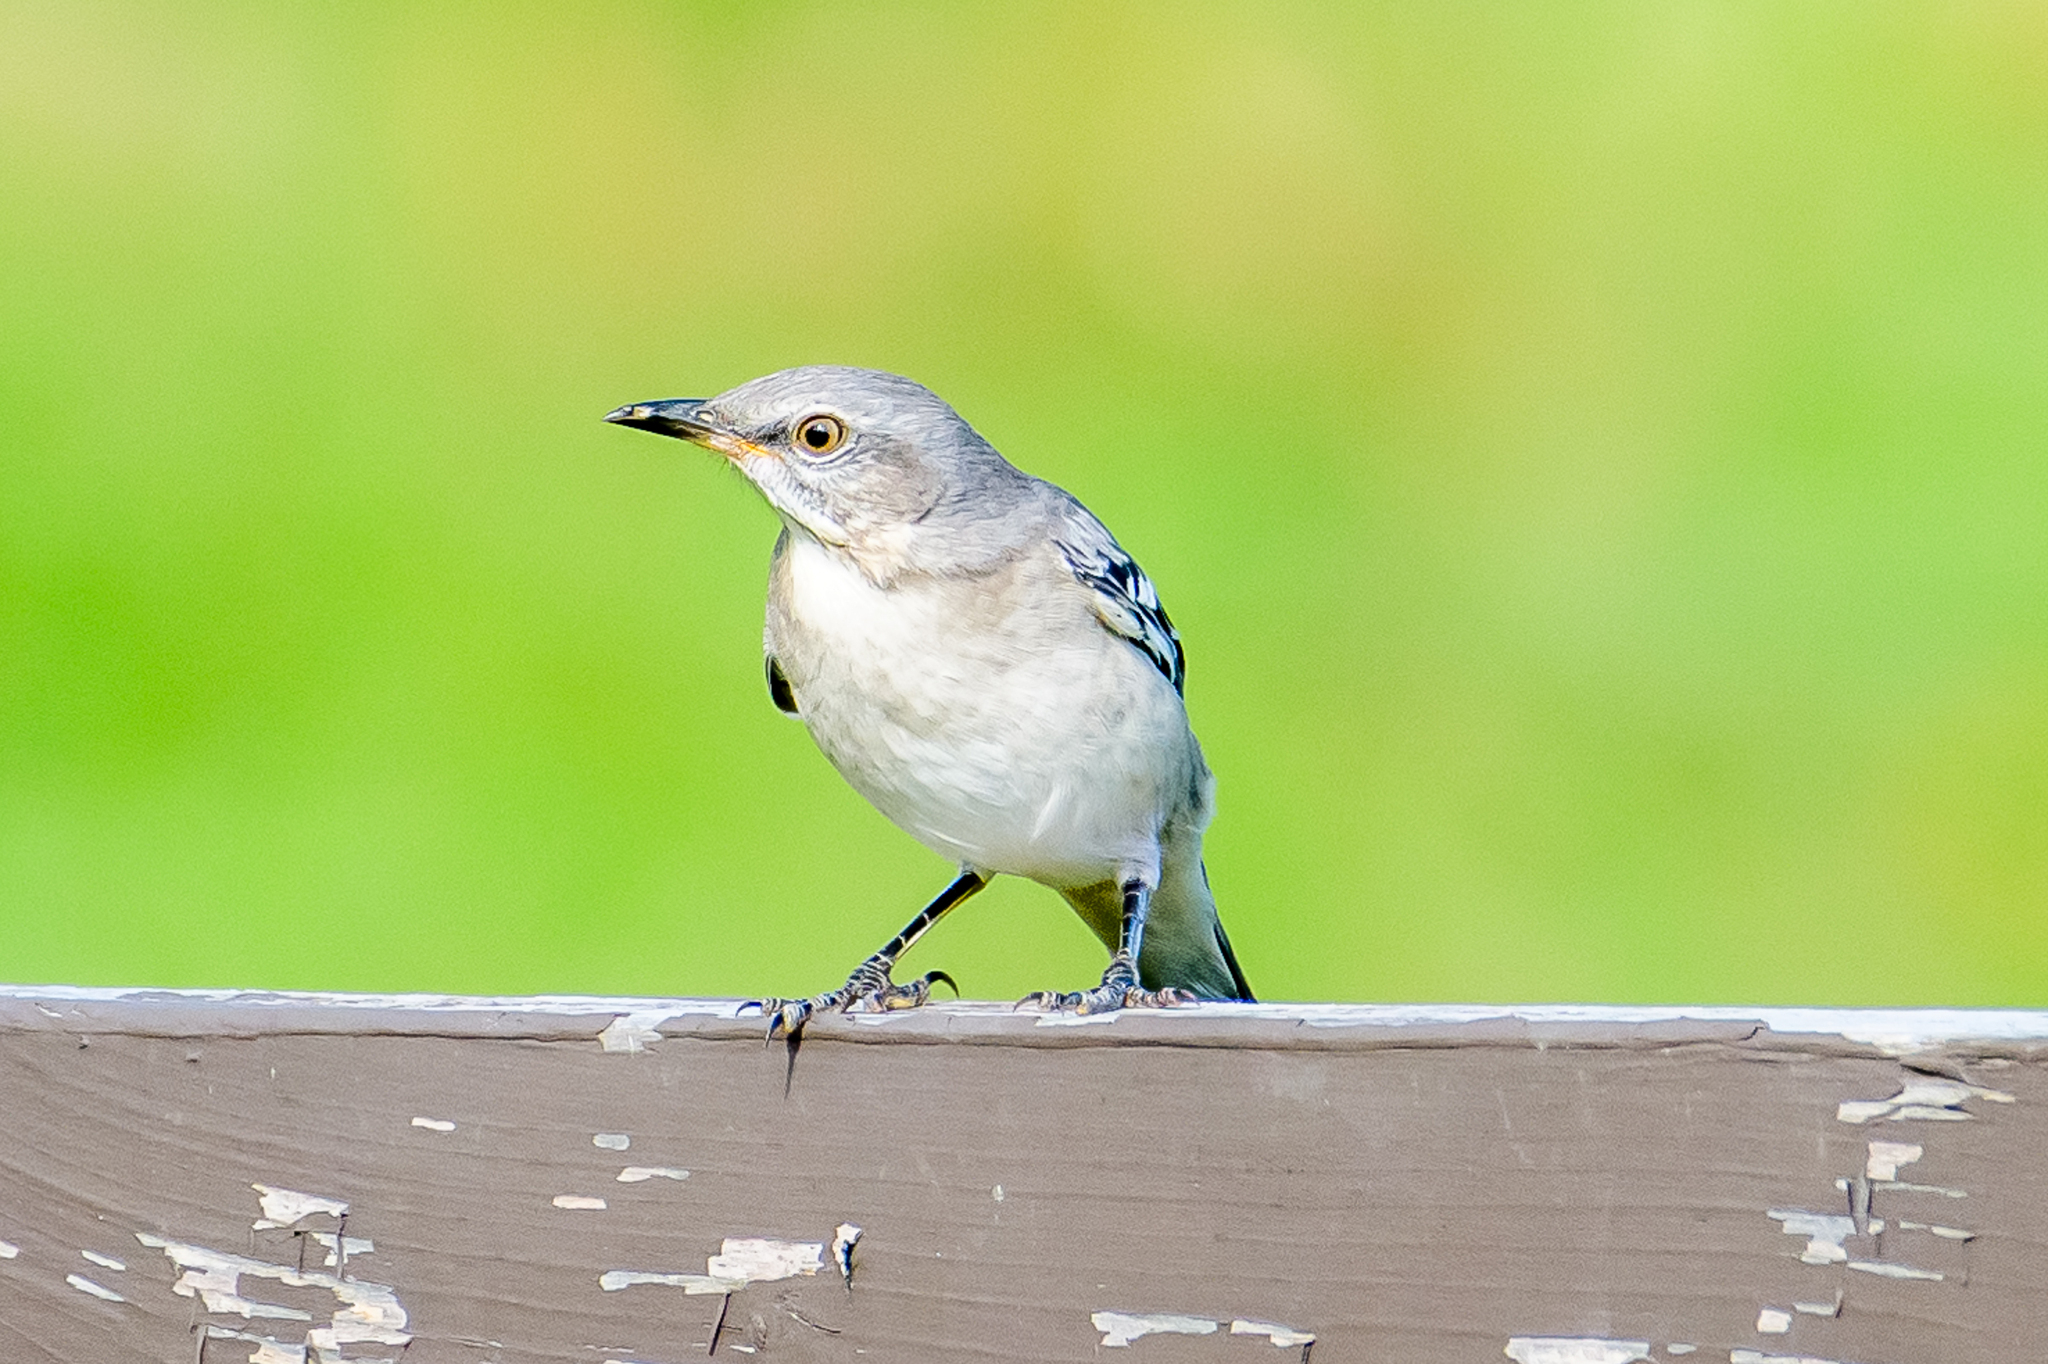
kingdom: Animalia
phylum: Chordata
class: Aves
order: Passeriformes
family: Mimidae
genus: Mimus
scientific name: Mimus polyglottos
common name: Northern mockingbird
